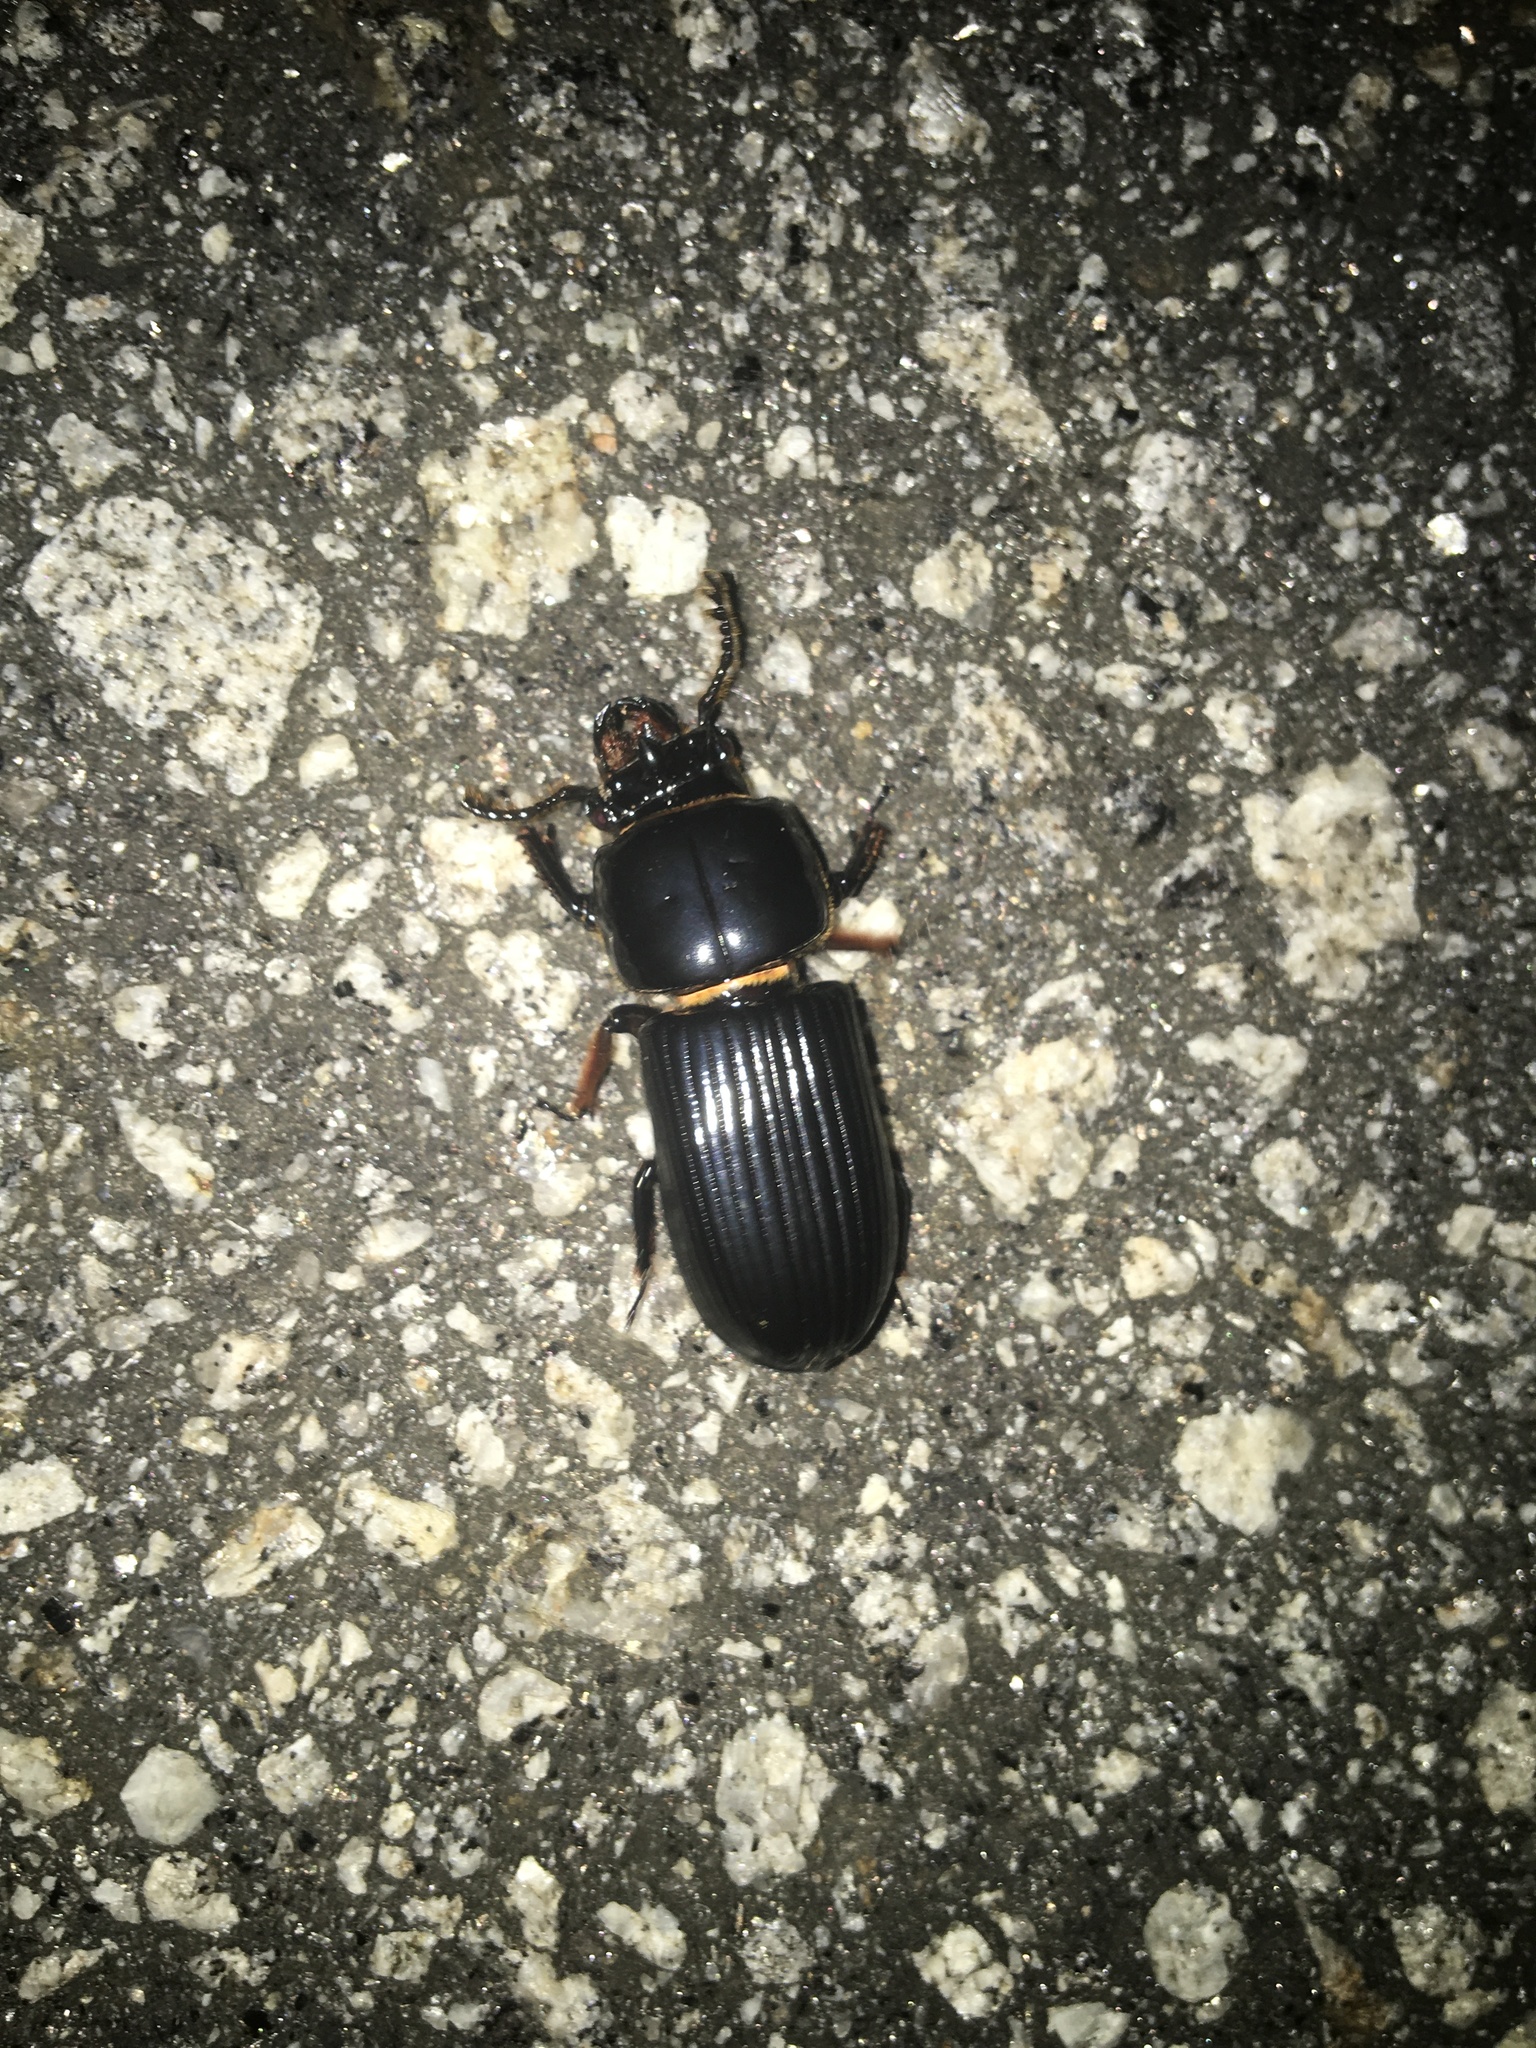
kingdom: Animalia
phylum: Arthropoda
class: Insecta
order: Coleoptera
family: Passalidae
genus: Odontotaenius
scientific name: Odontotaenius disjunctus
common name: Patent leather beetle
